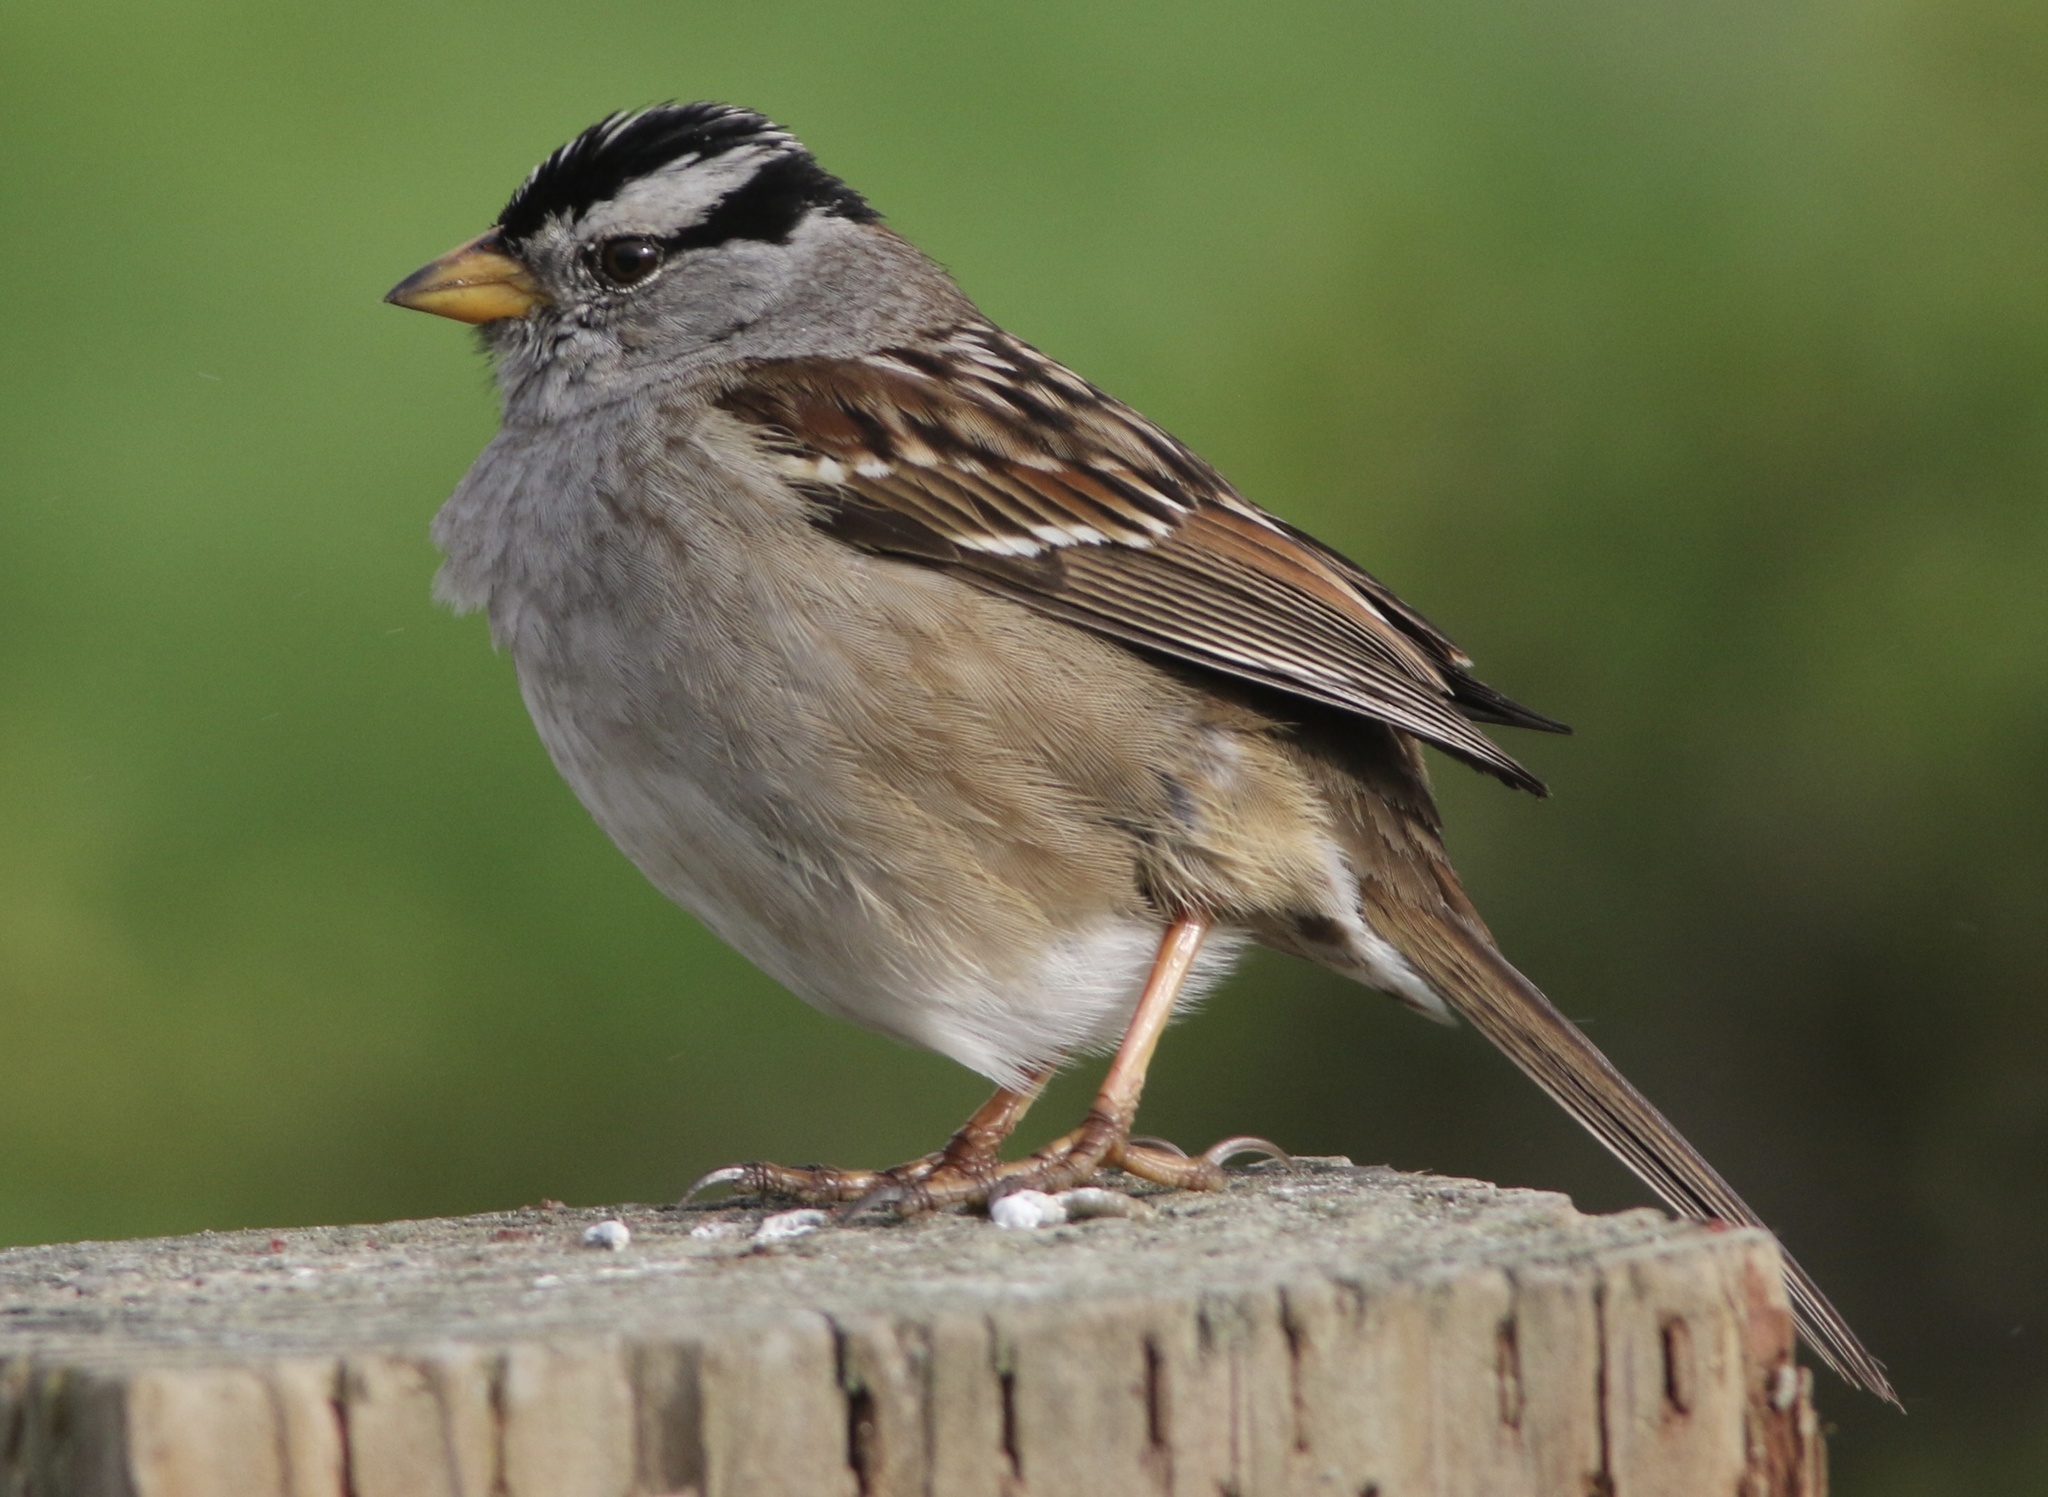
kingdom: Animalia
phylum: Chordata
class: Aves
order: Passeriformes
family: Passerellidae
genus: Zonotrichia
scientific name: Zonotrichia leucophrys
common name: White-crowned sparrow
